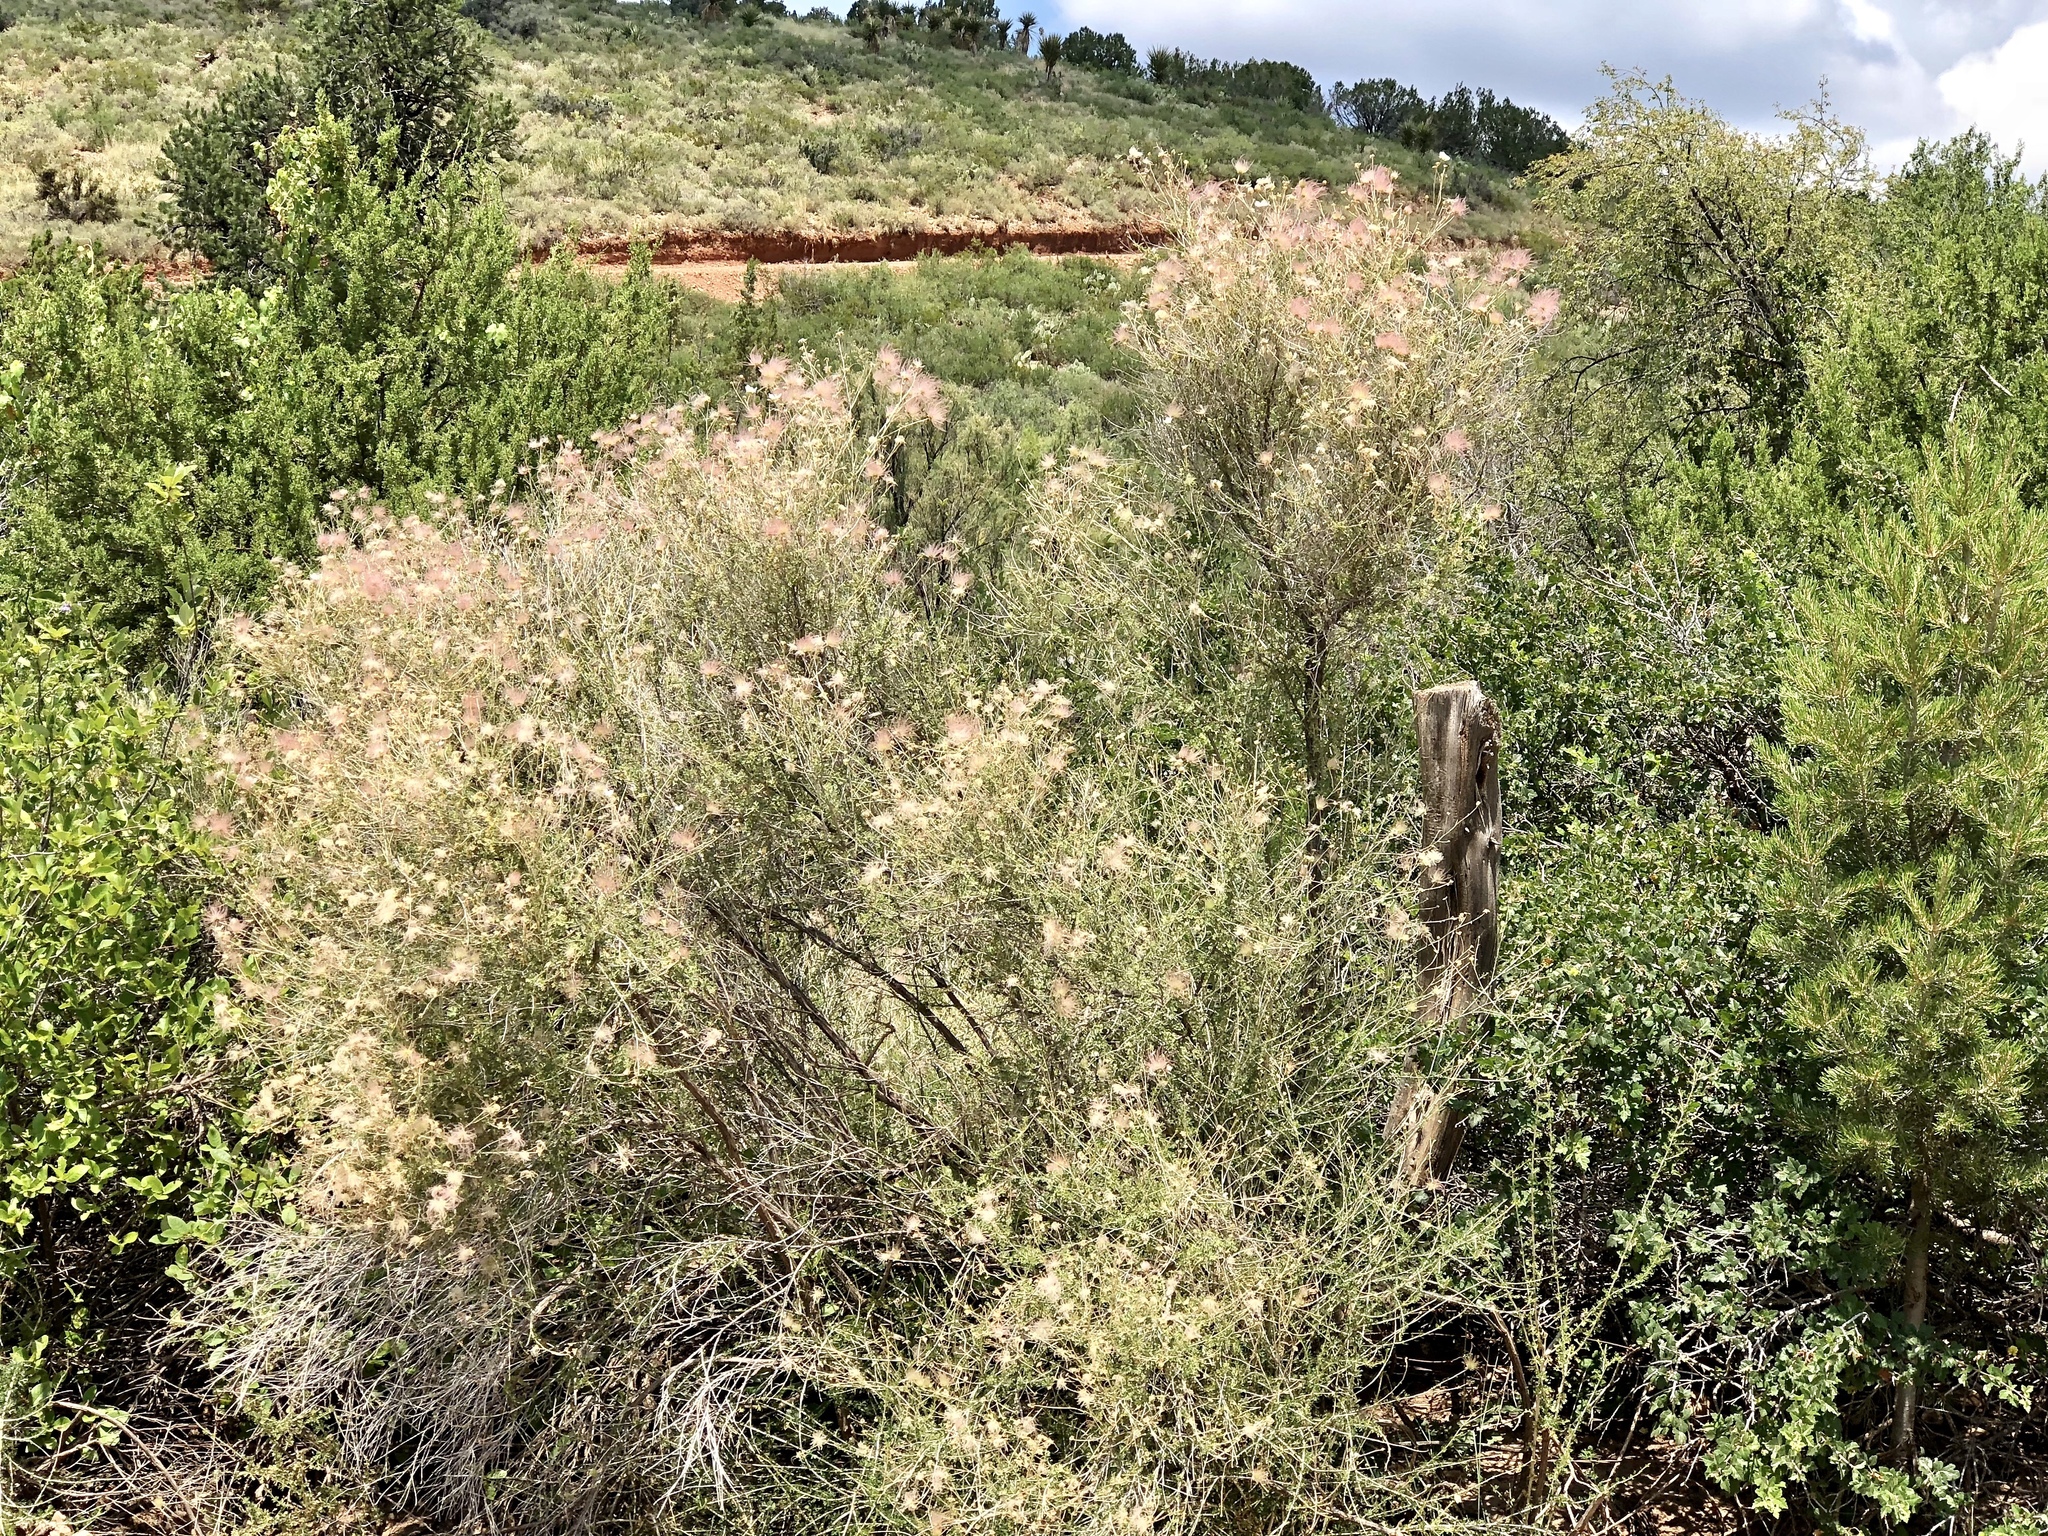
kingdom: Plantae
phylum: Tracheophyta
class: Magnoliopsida
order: Rosales
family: Rosaceae
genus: Fallugia
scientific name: Fallugia paradoxa
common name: Apache-plume
